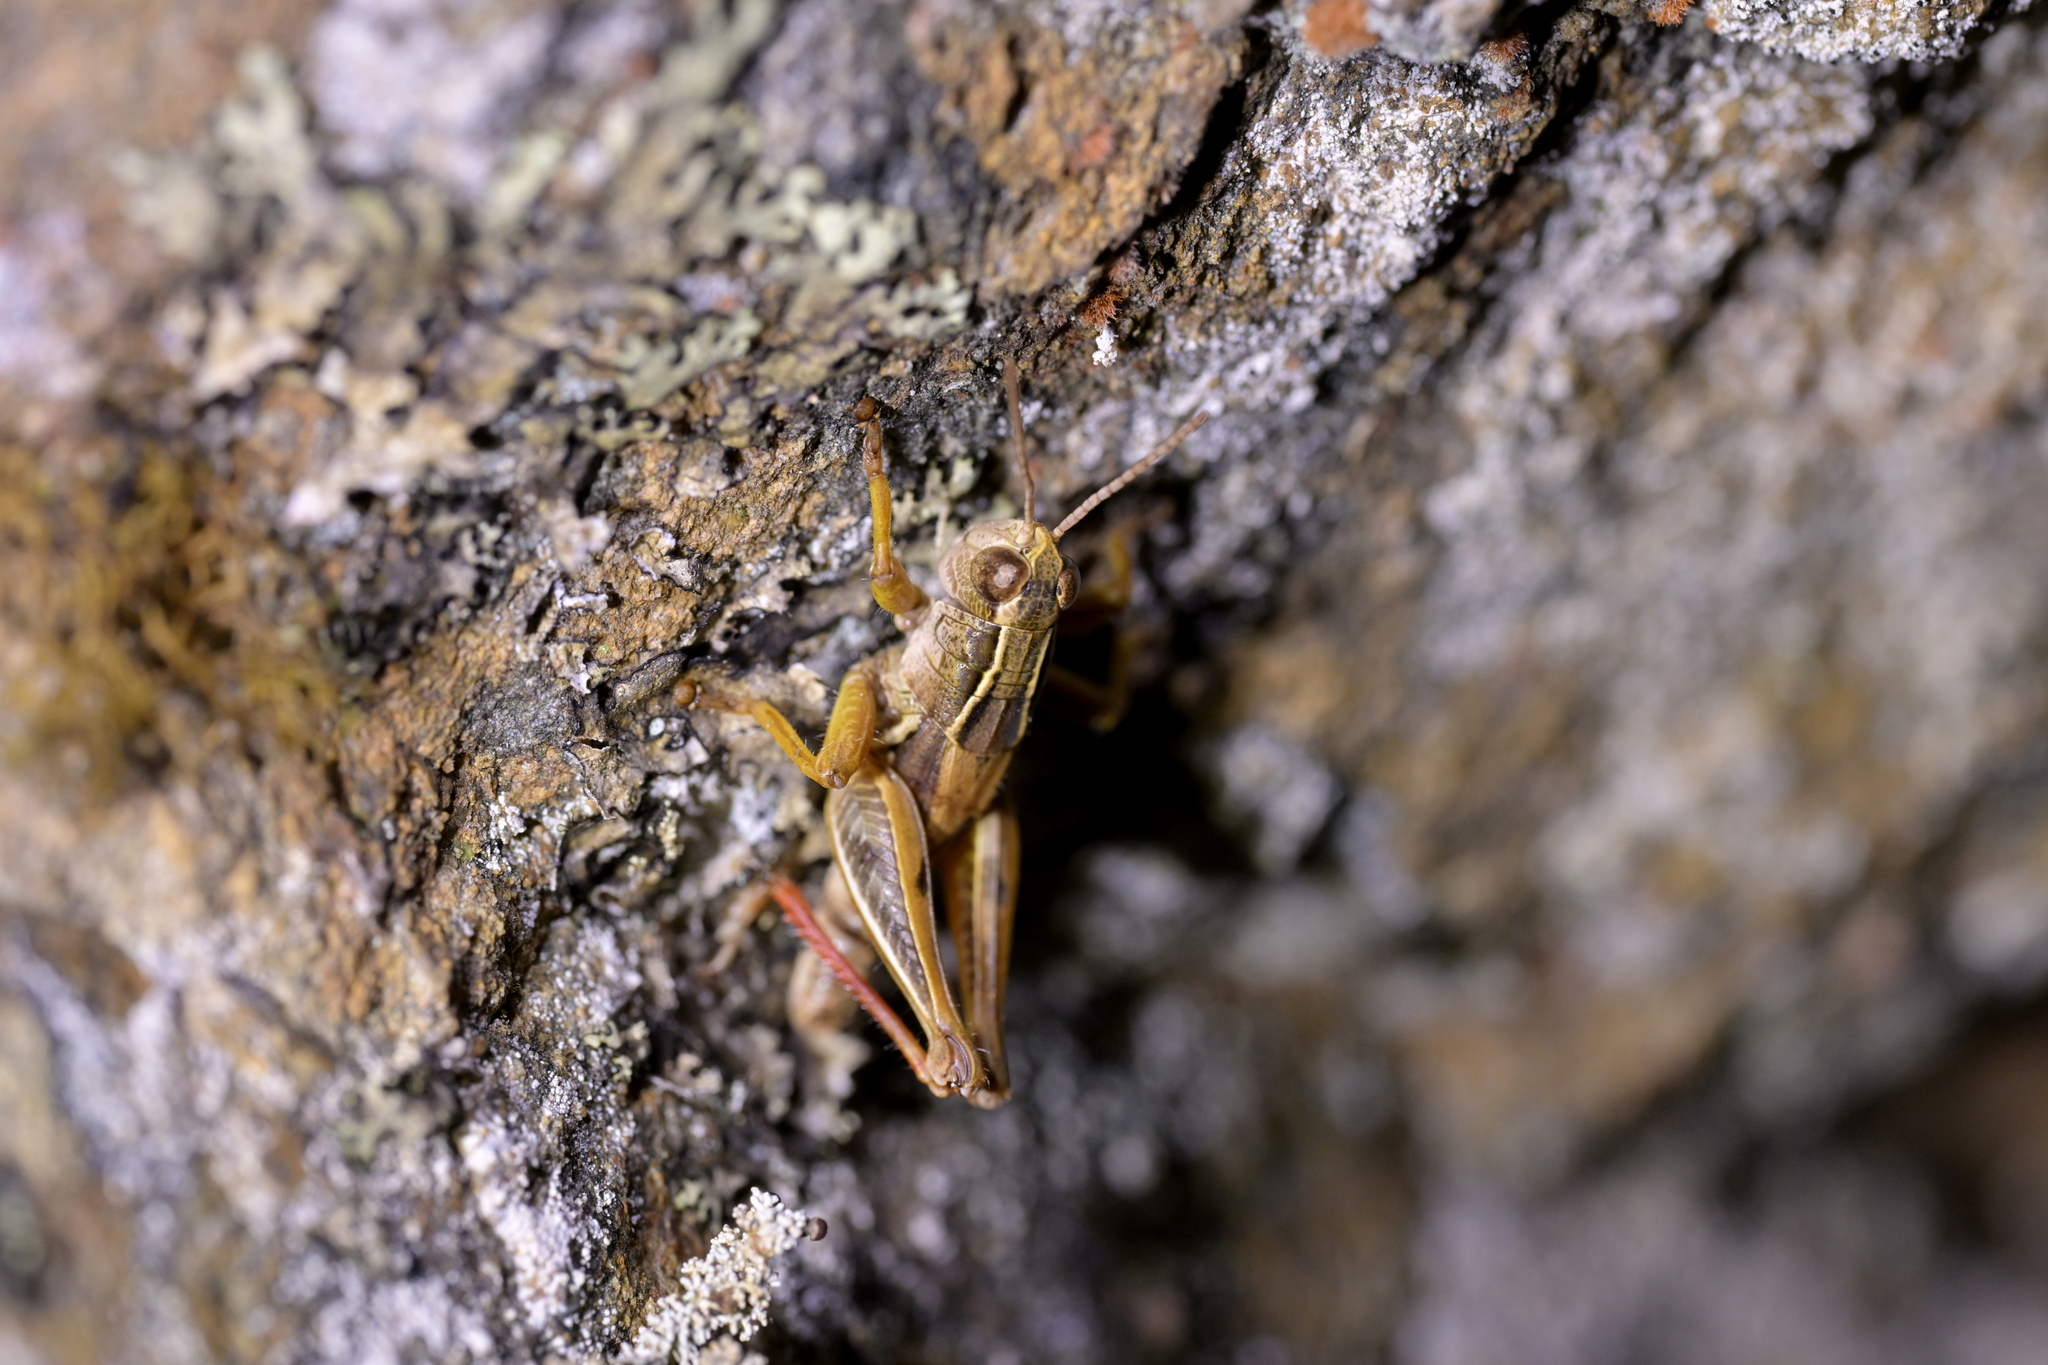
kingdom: Animalia
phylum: Arthropoda
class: Insecta
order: Orthoptera
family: Acrididae
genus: Phaulacridium
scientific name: Phaulacridium marginale
